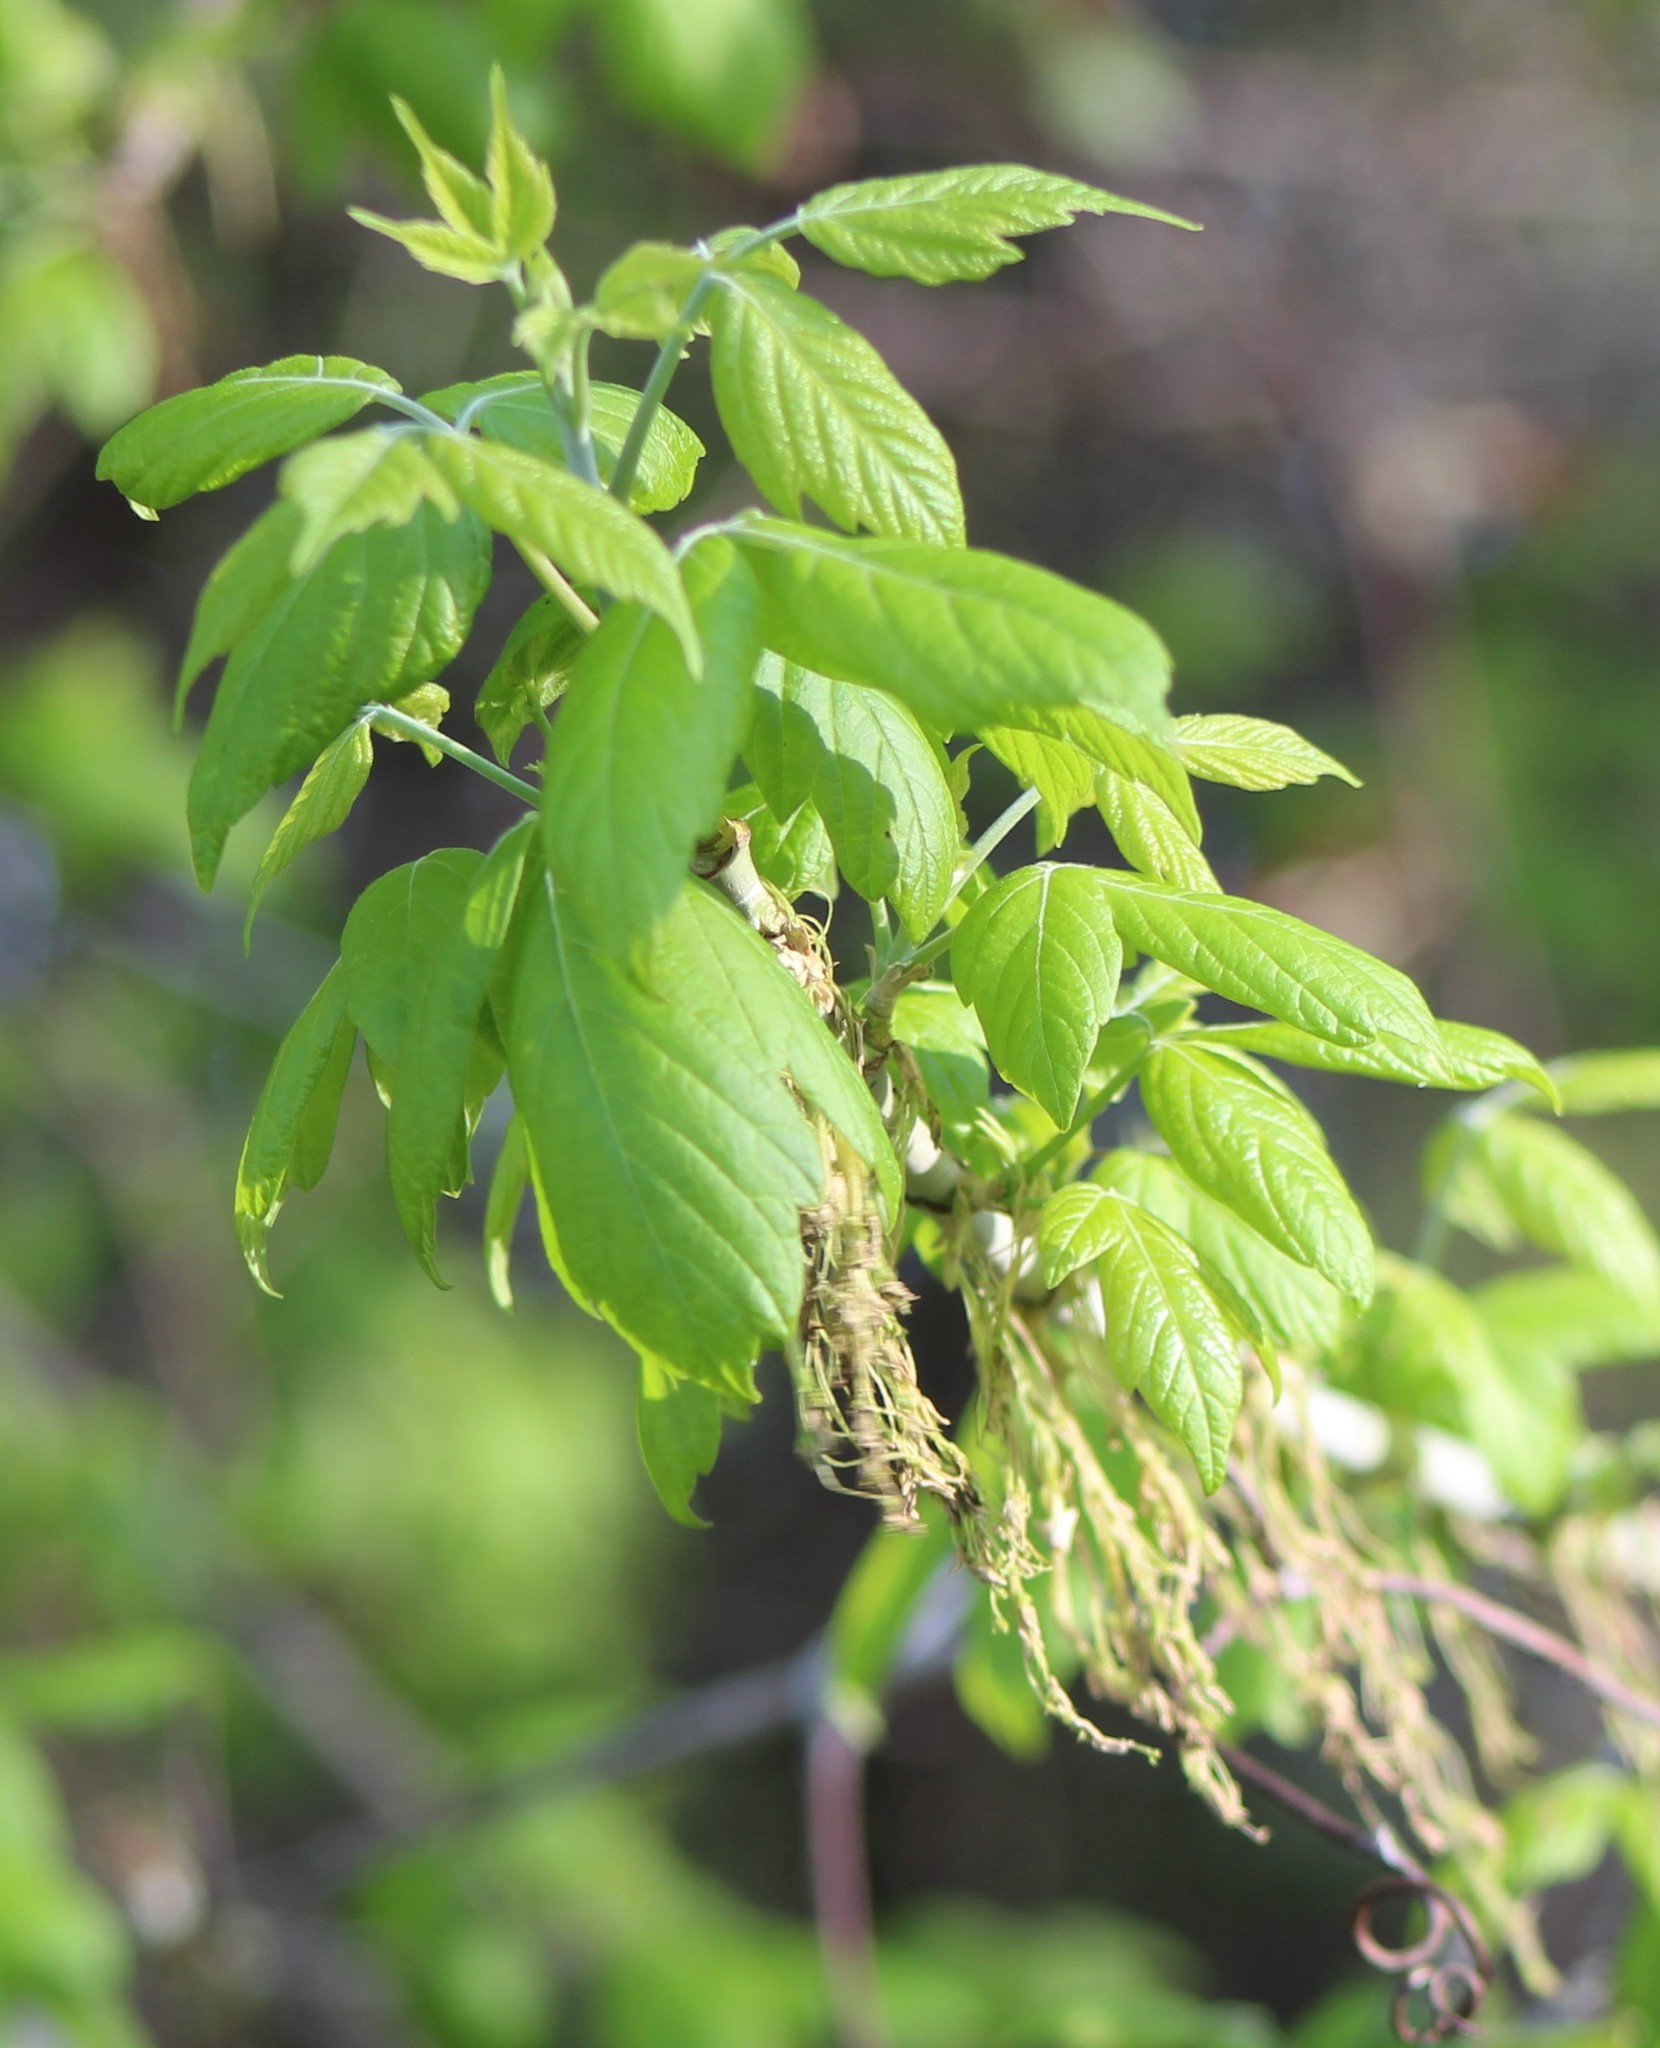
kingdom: Plantae
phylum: Tracheophyta
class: Magnoliopsida
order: Sapindales
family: Sapindaceae
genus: Acer
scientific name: Acer negundo
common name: Ashleaf maple
